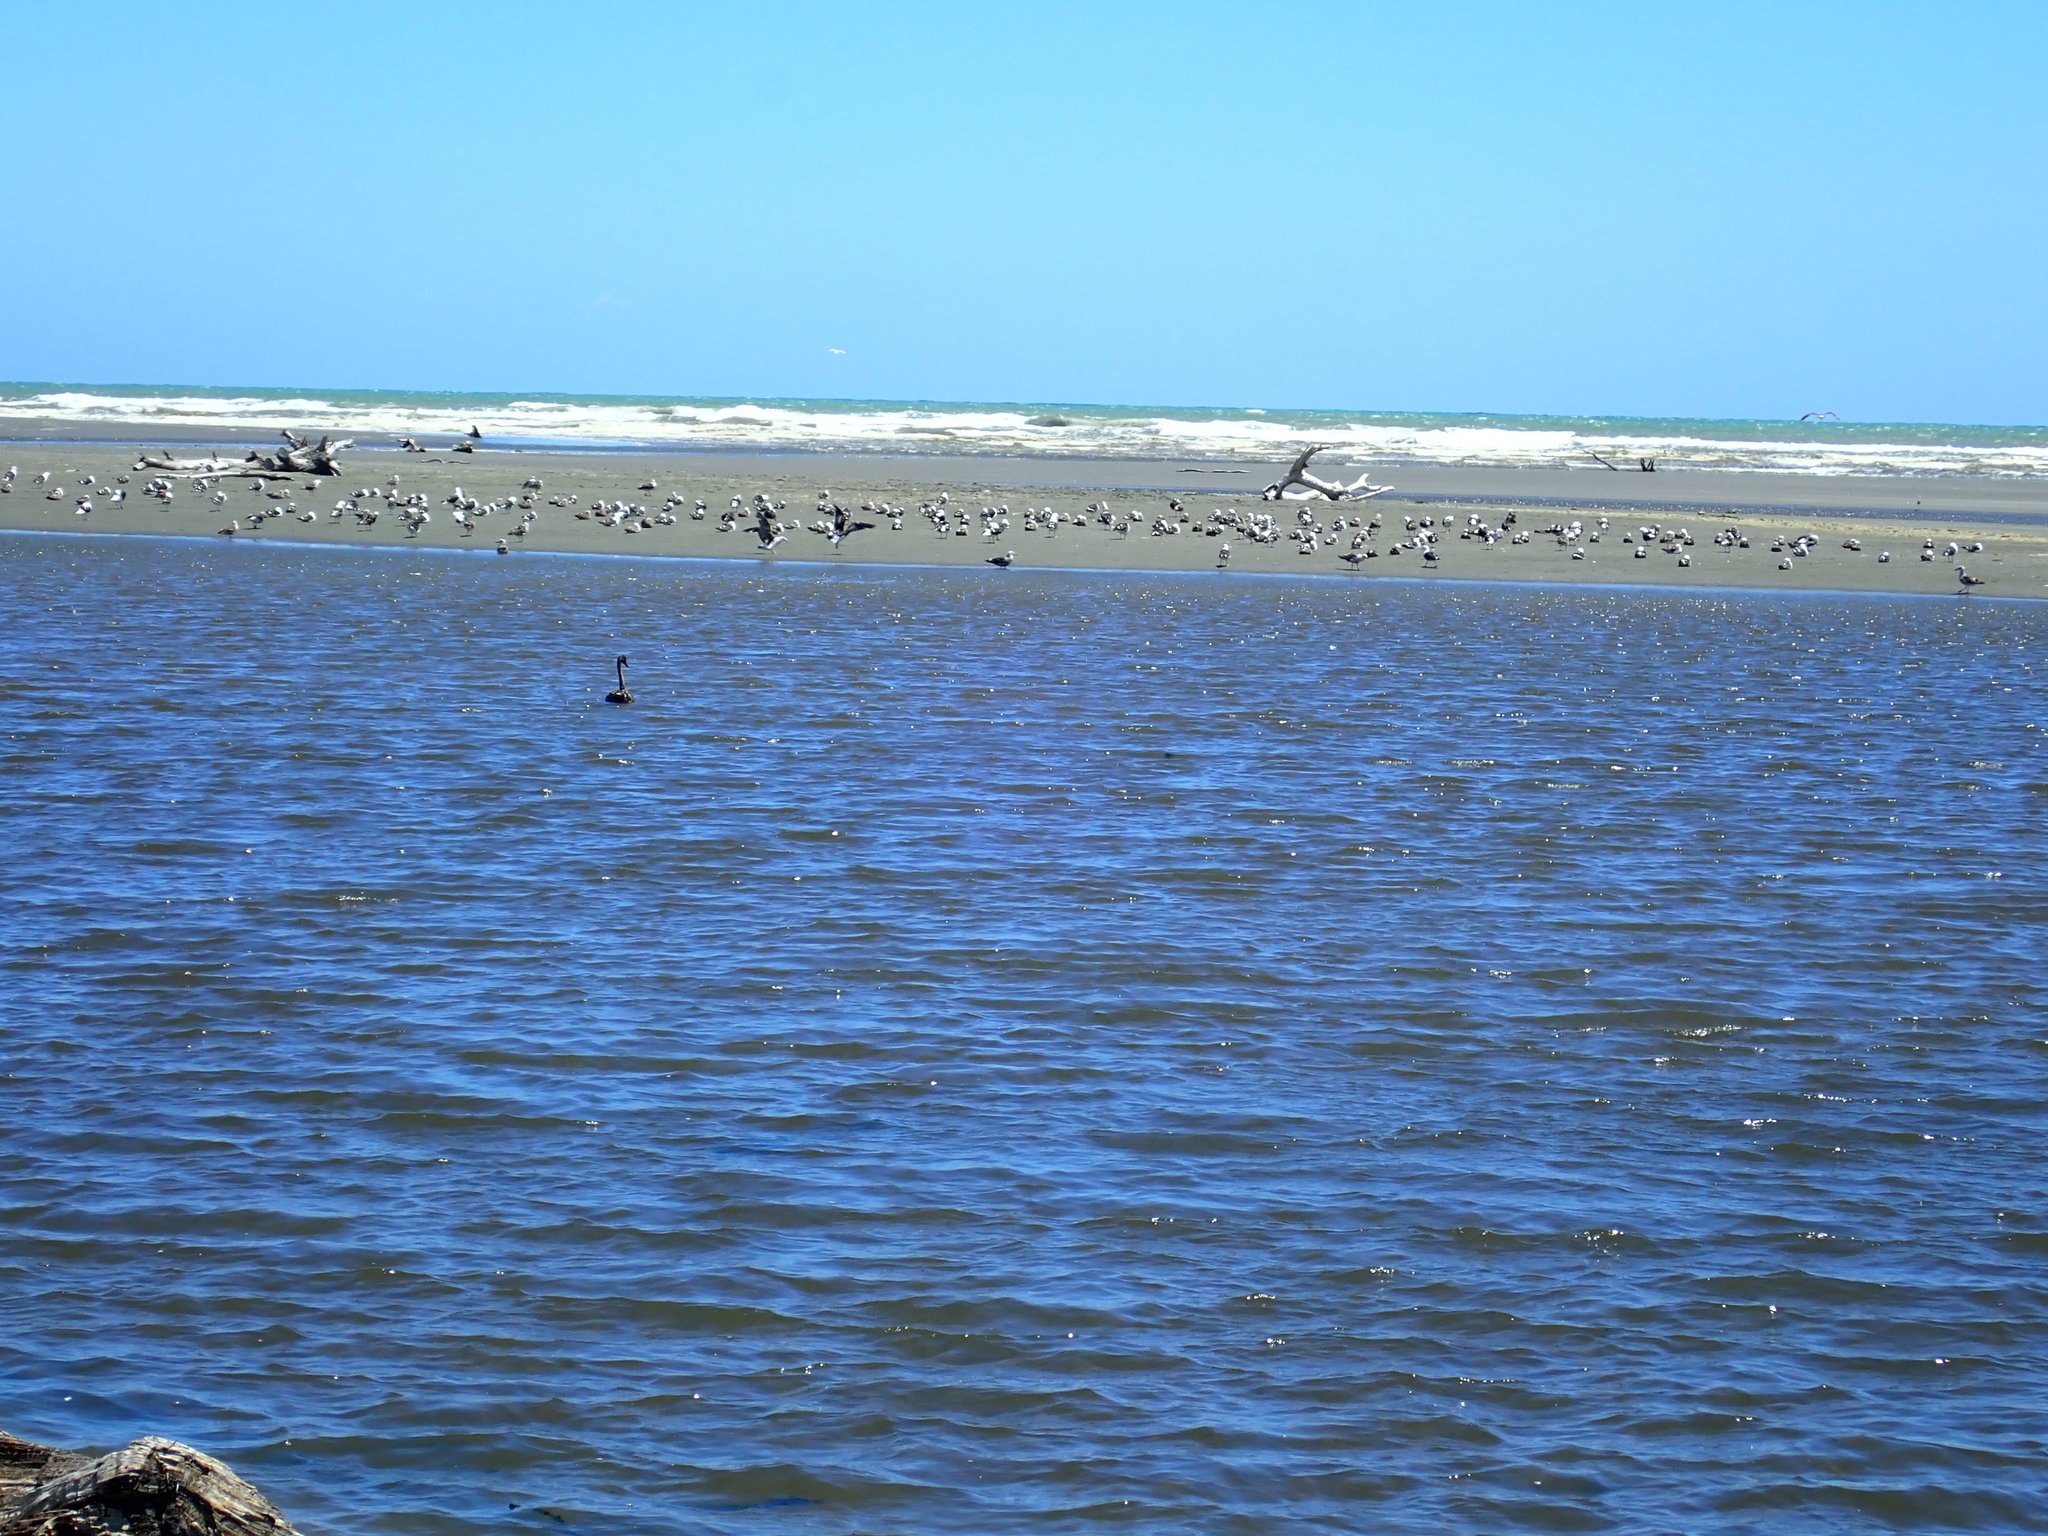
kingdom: Animalia
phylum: Chordata
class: Aves
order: Anseriformes
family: Anatidae
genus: Cygnus
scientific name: Cygnus atratus
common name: Black swan
